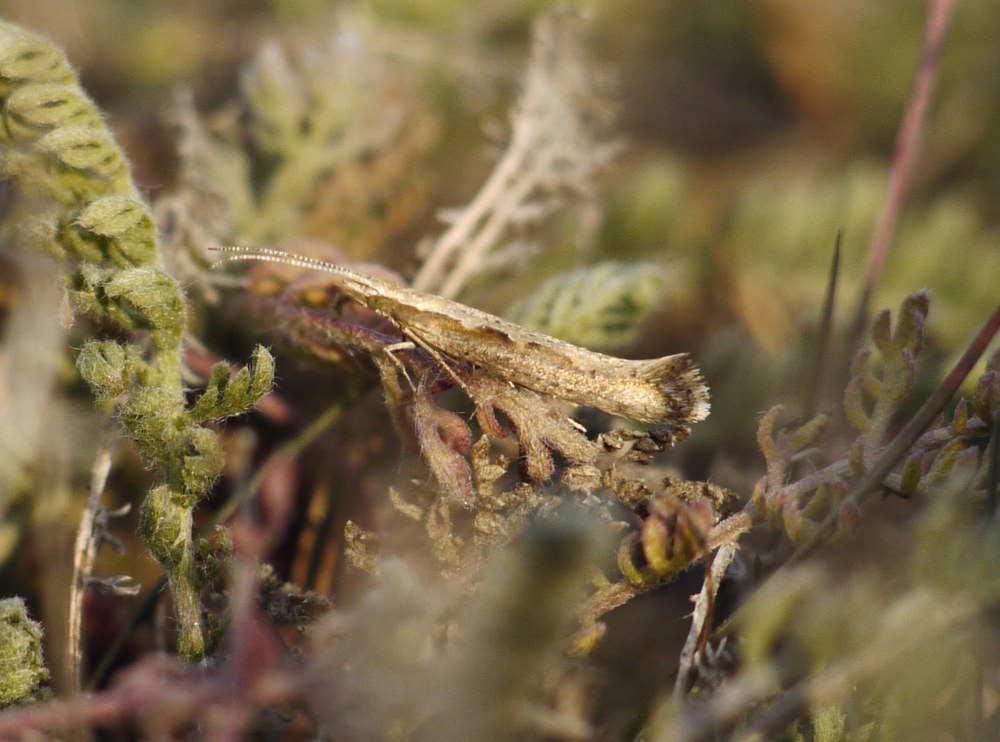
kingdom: Animalia
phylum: Arthropoda
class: Insecta
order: Lepidoptera
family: Plutellidae
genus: Plutella
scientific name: Plutella xylostella
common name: Diamond-back moth
